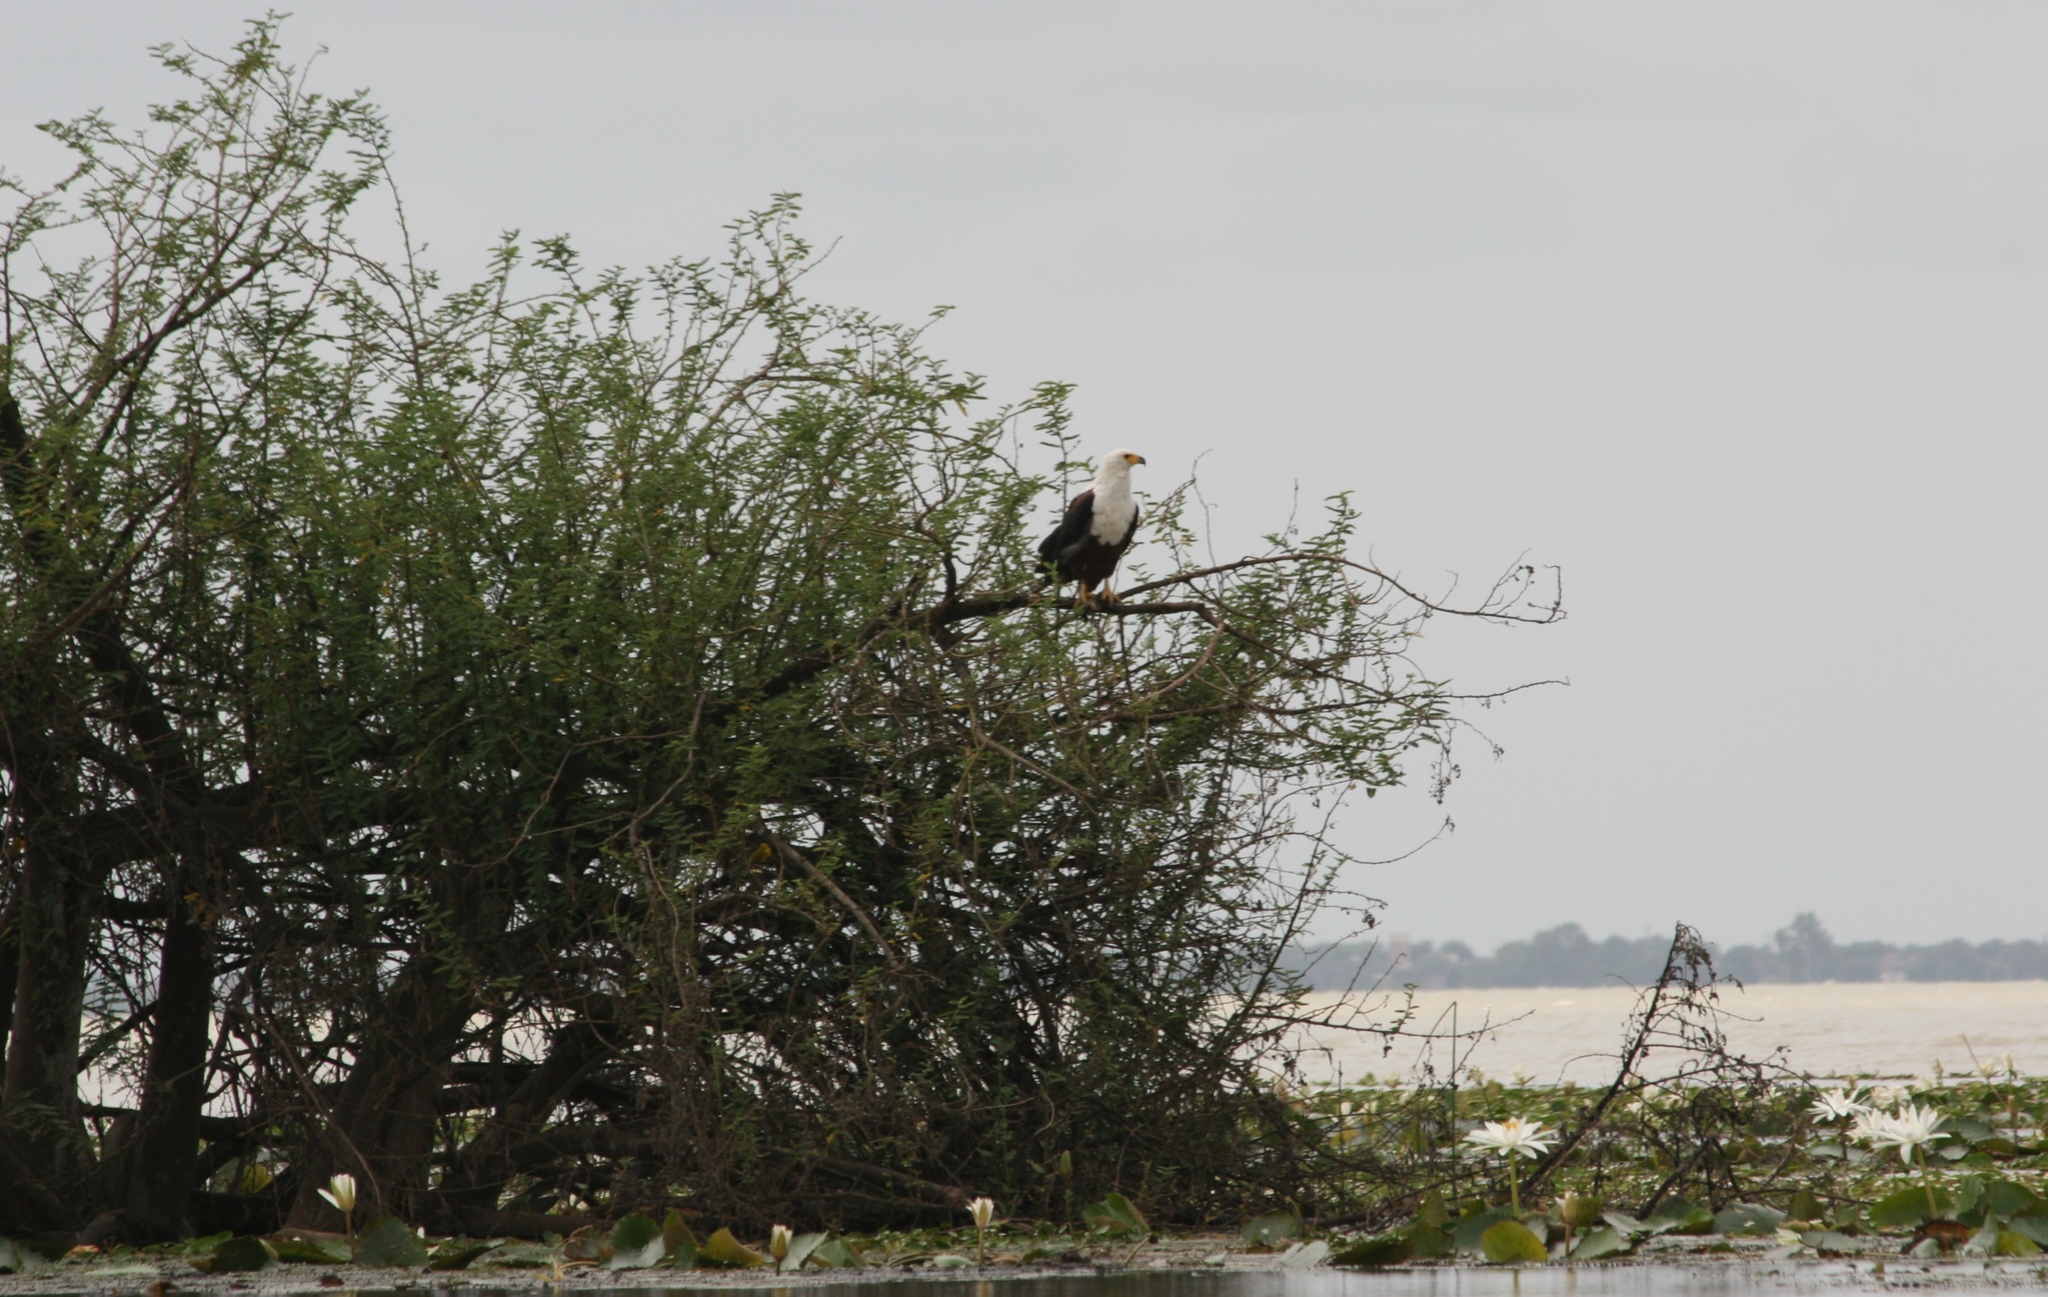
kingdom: Animalia
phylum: Chordata
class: Aves
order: Accipitriformes
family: Accipitridae
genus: Haliaeetus
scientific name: Haliaeetus vocifer
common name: African fish eagle
